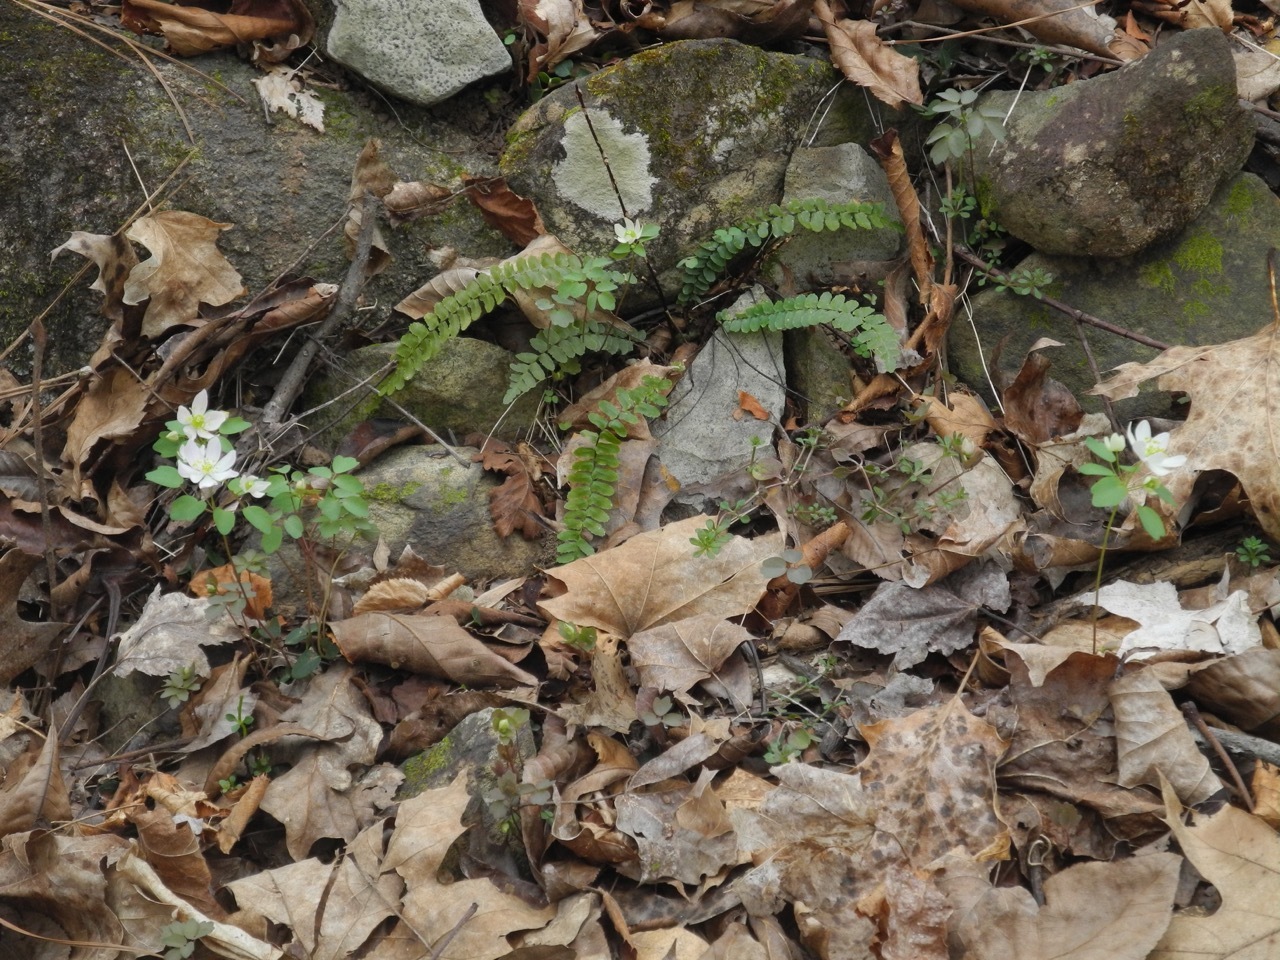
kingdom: Plantae
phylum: Tracheophyta
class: Polypodiopsida
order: Polypodiales
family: Aspleniaceae
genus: Asplenium
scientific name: Asplenium platyneuron
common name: Ebony spleenwort
